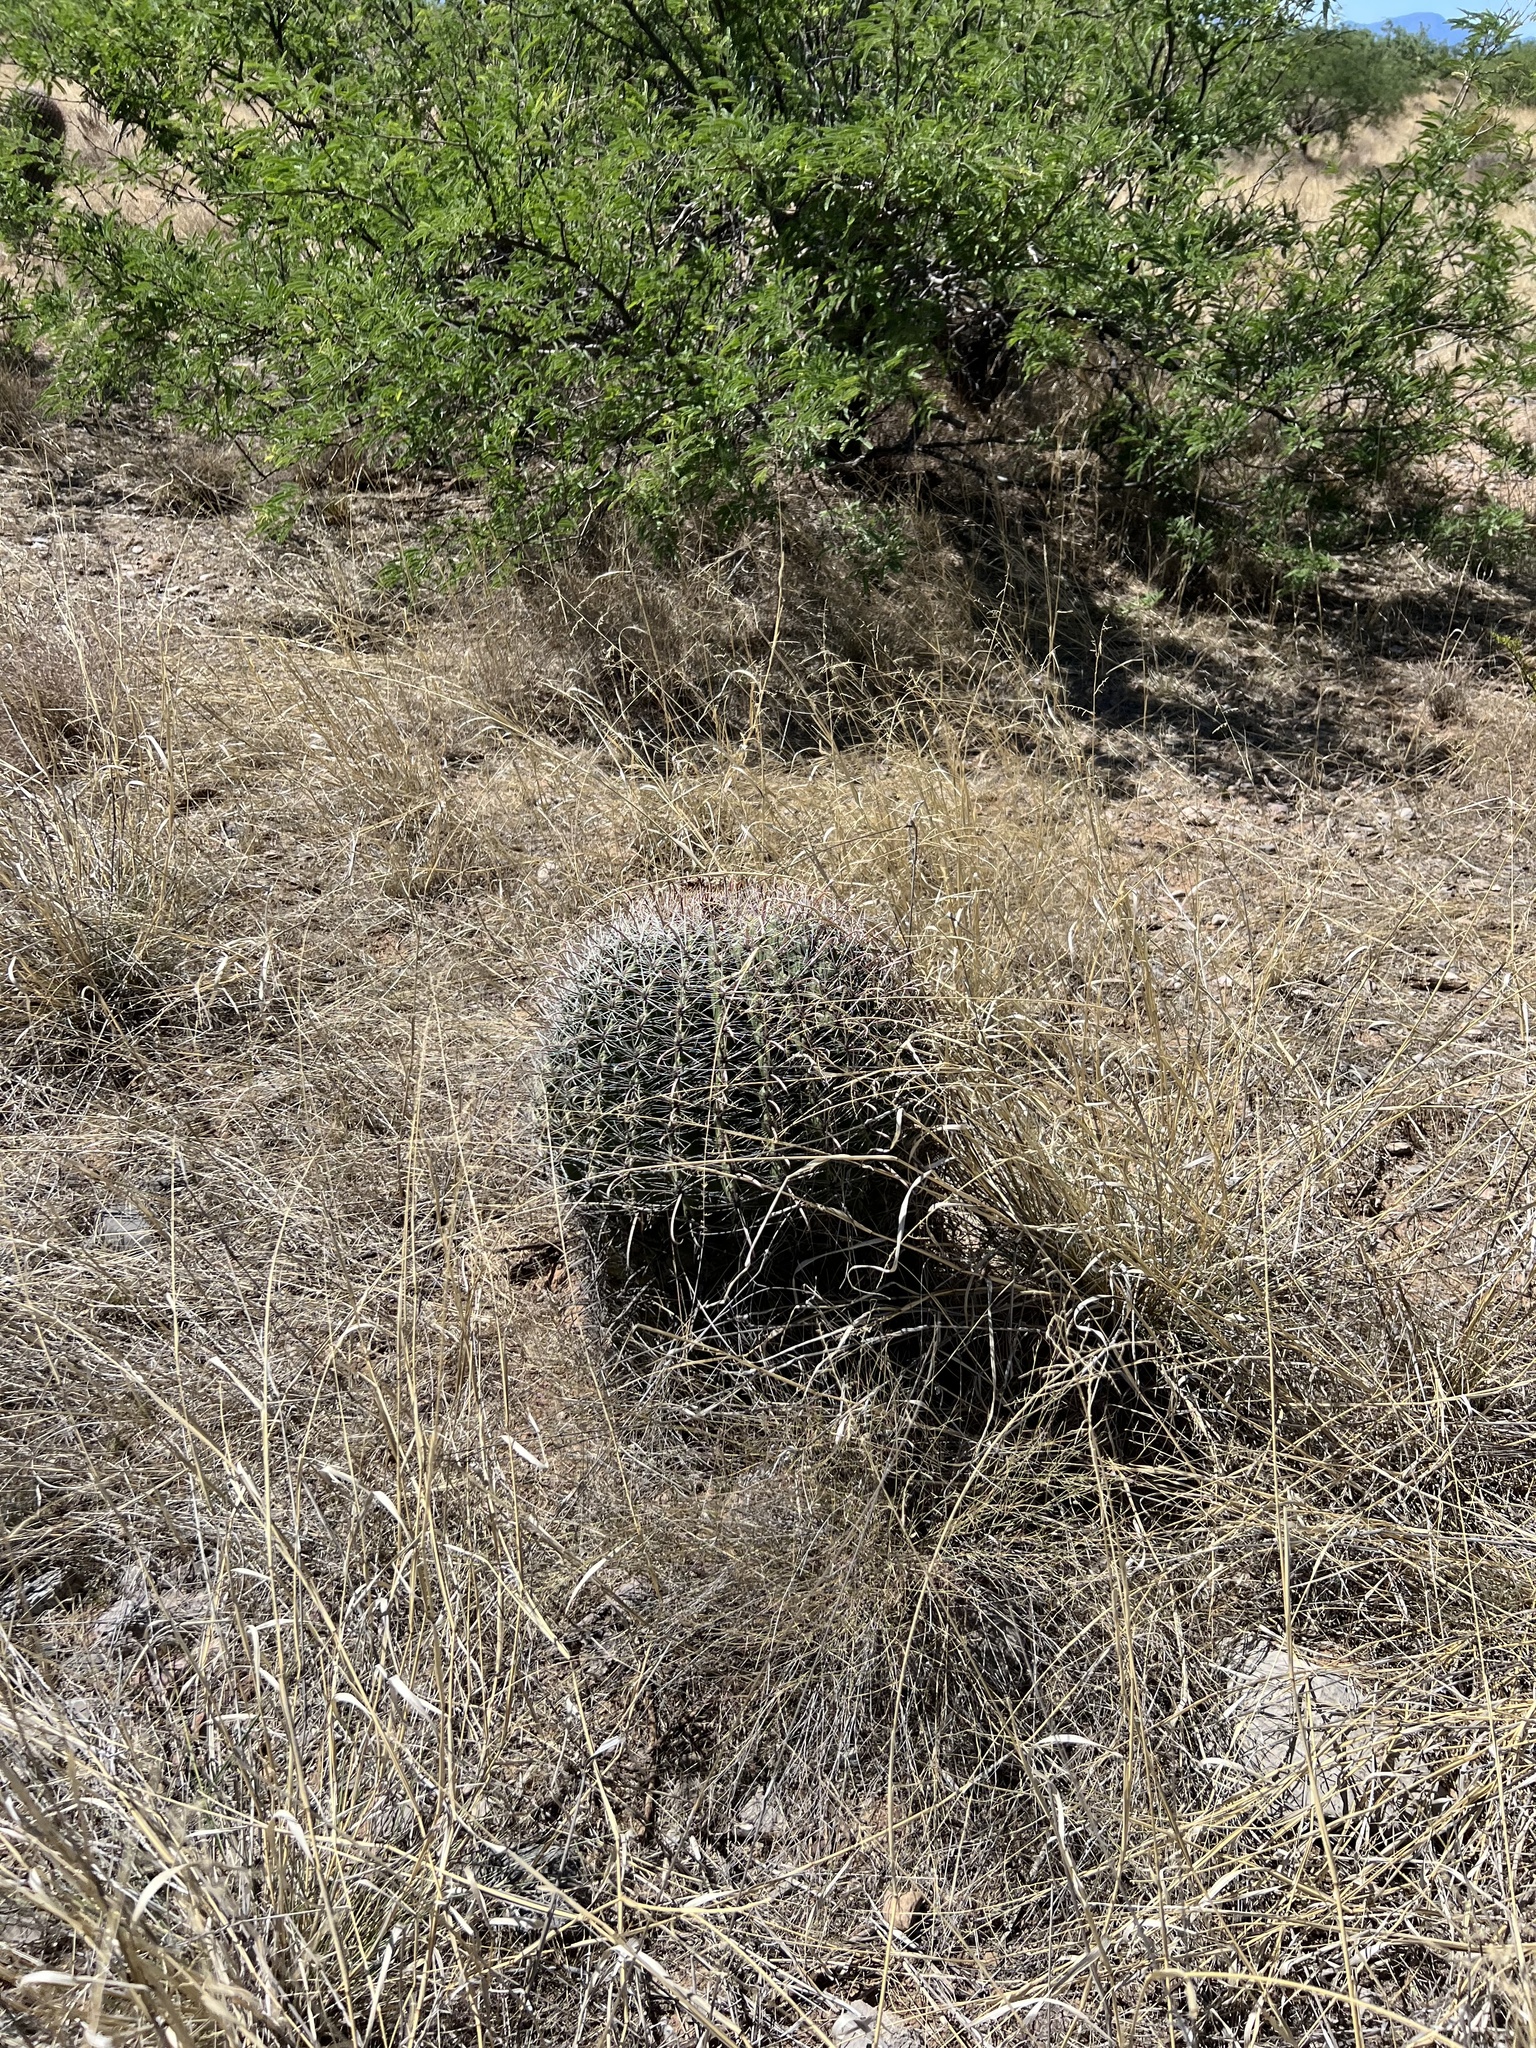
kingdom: Plantae
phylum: Tracheophyta
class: Magnoliopsida
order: Caryophyllales
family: Cactaceae
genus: Ferocactus
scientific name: Ferocactus wislizeni
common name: Candy barrel cactus
